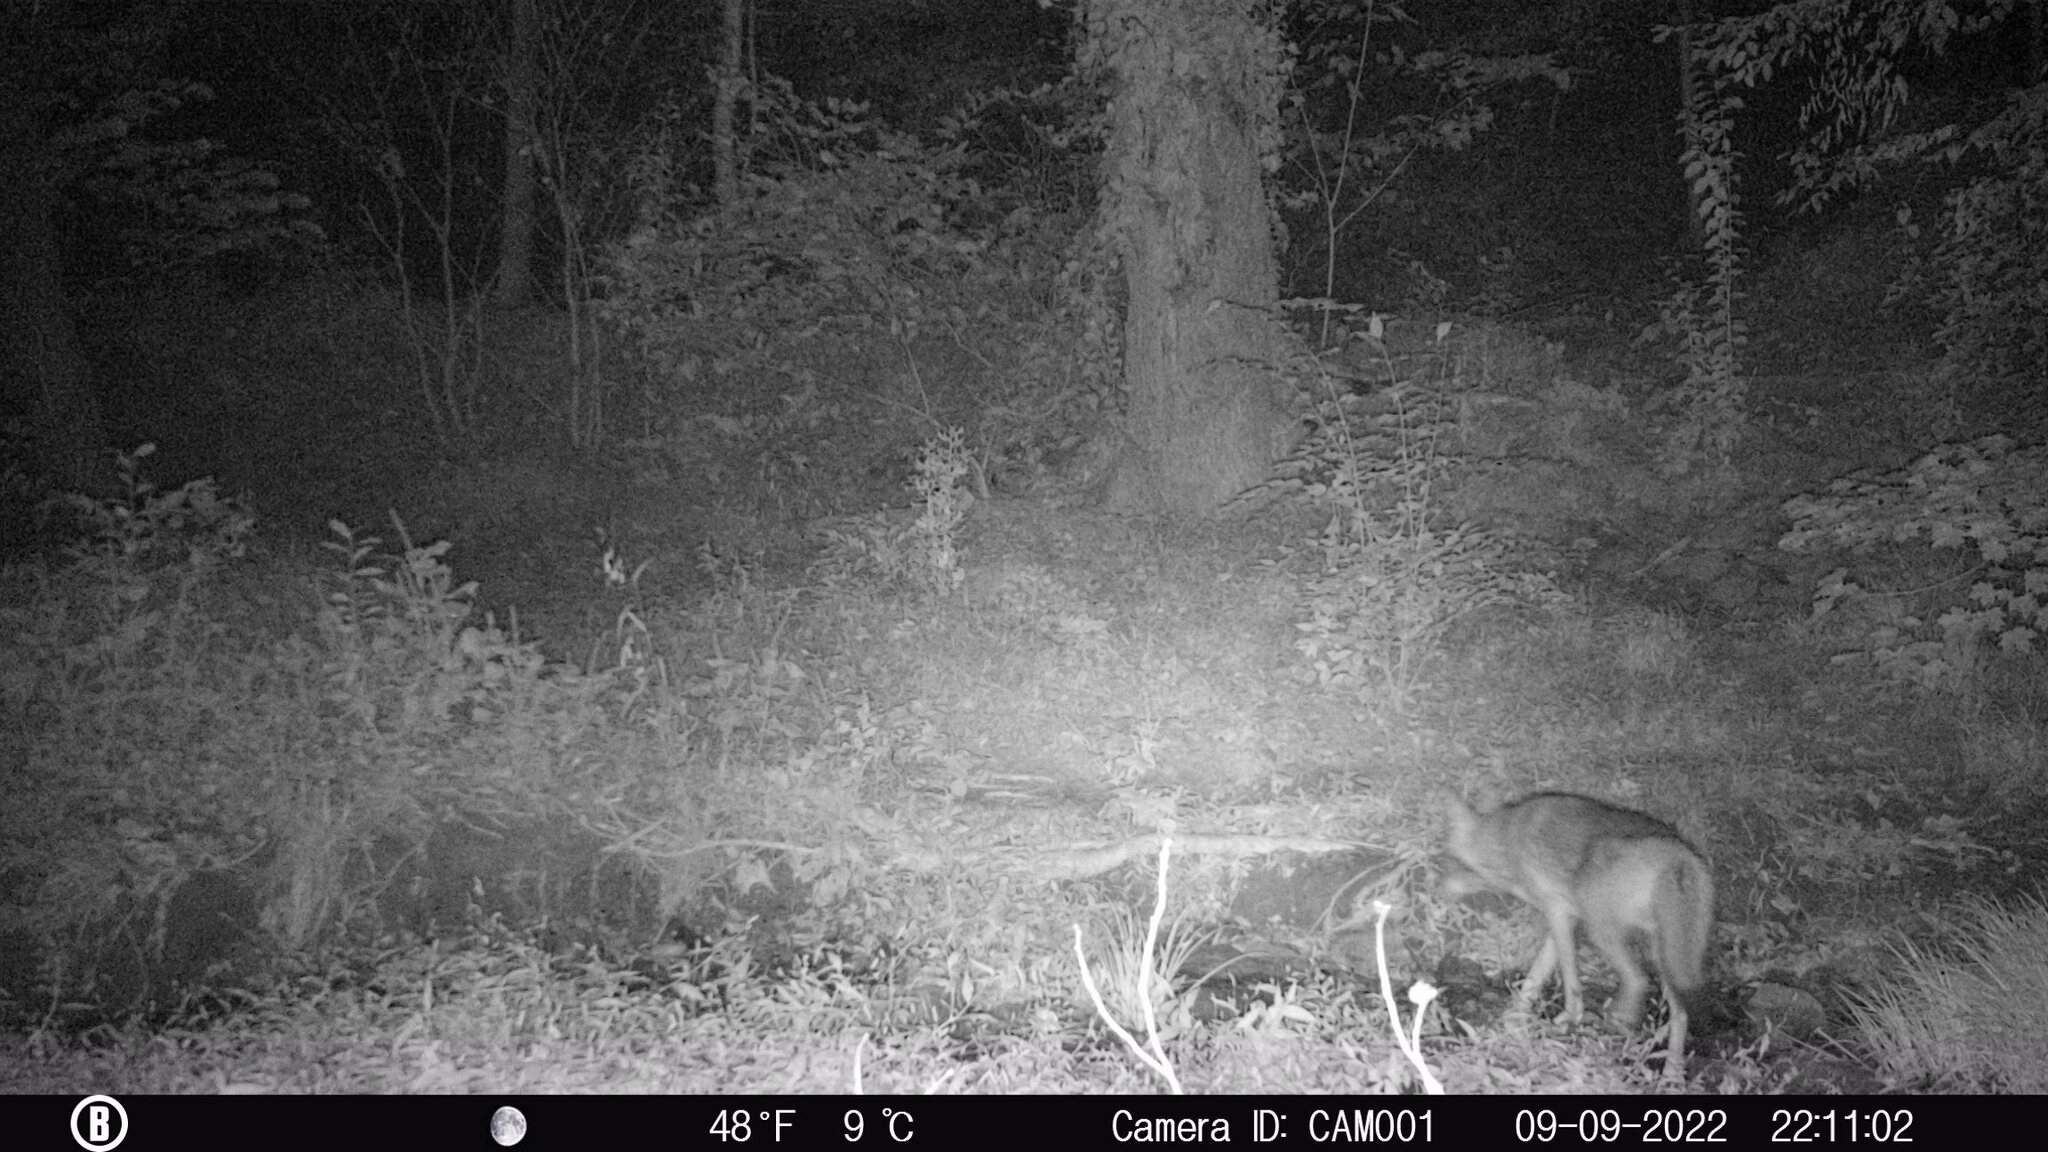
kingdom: Animalia
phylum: Chordata
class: Mammalia
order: Carnivora
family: Canidae
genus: Canis
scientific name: Canis latrans
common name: Coyote
